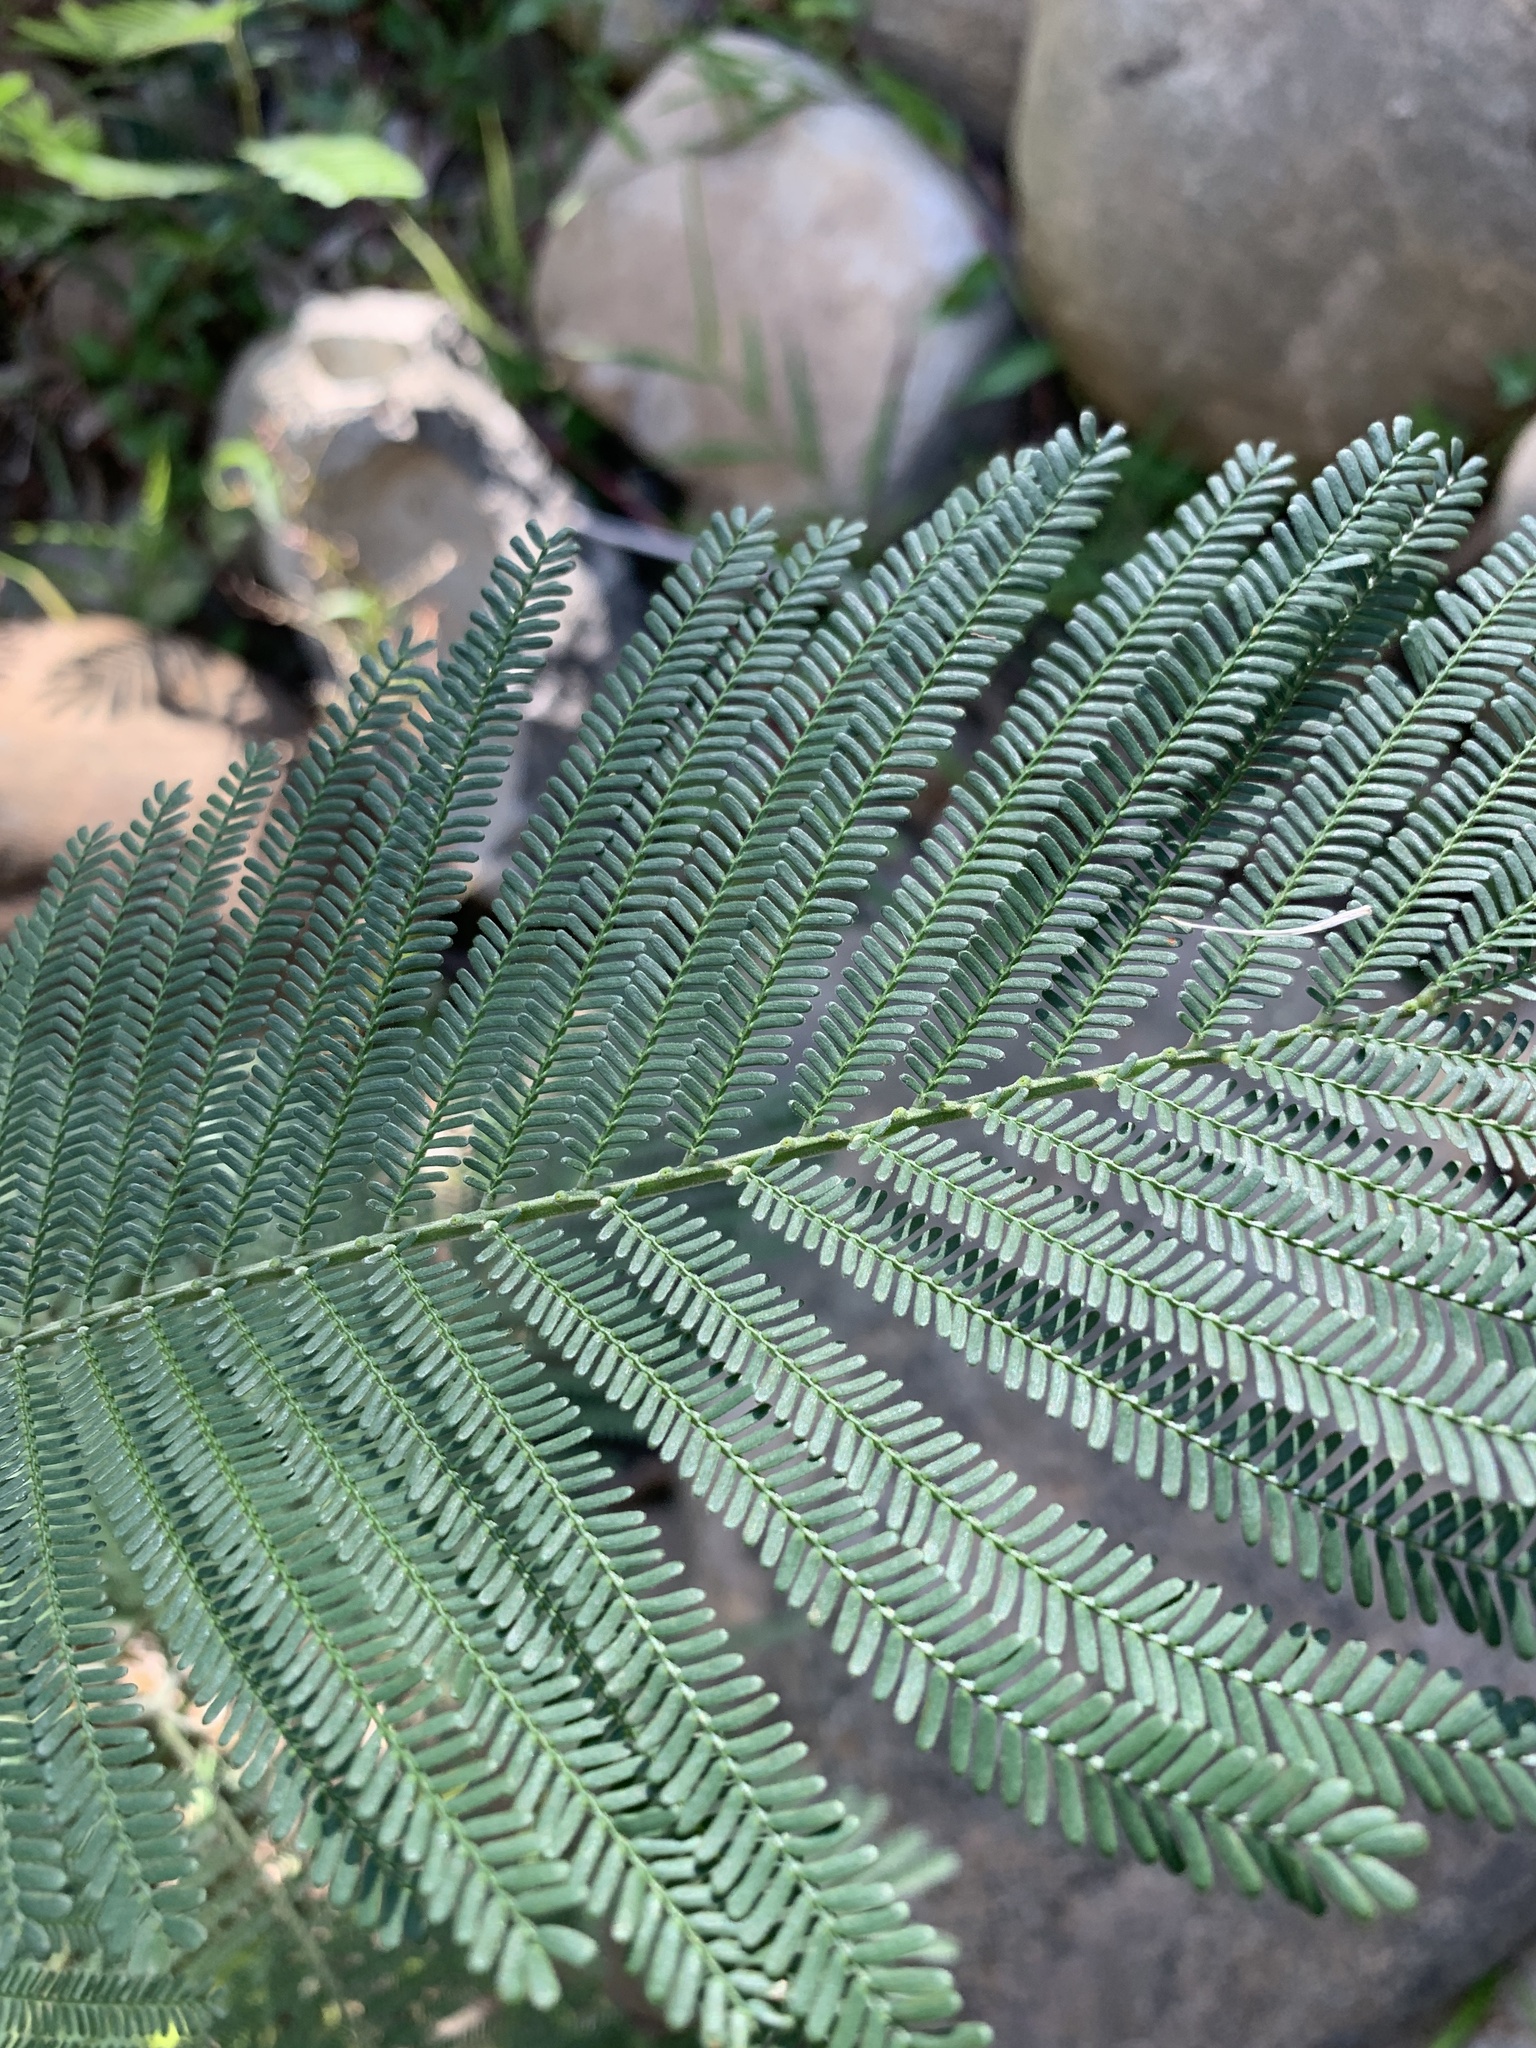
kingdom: Plantae
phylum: Tracheophyta
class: Magnoliopsida
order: Fabales
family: Fabaceae
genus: Acacia
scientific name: Acacia mearnsii
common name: Black wattle
